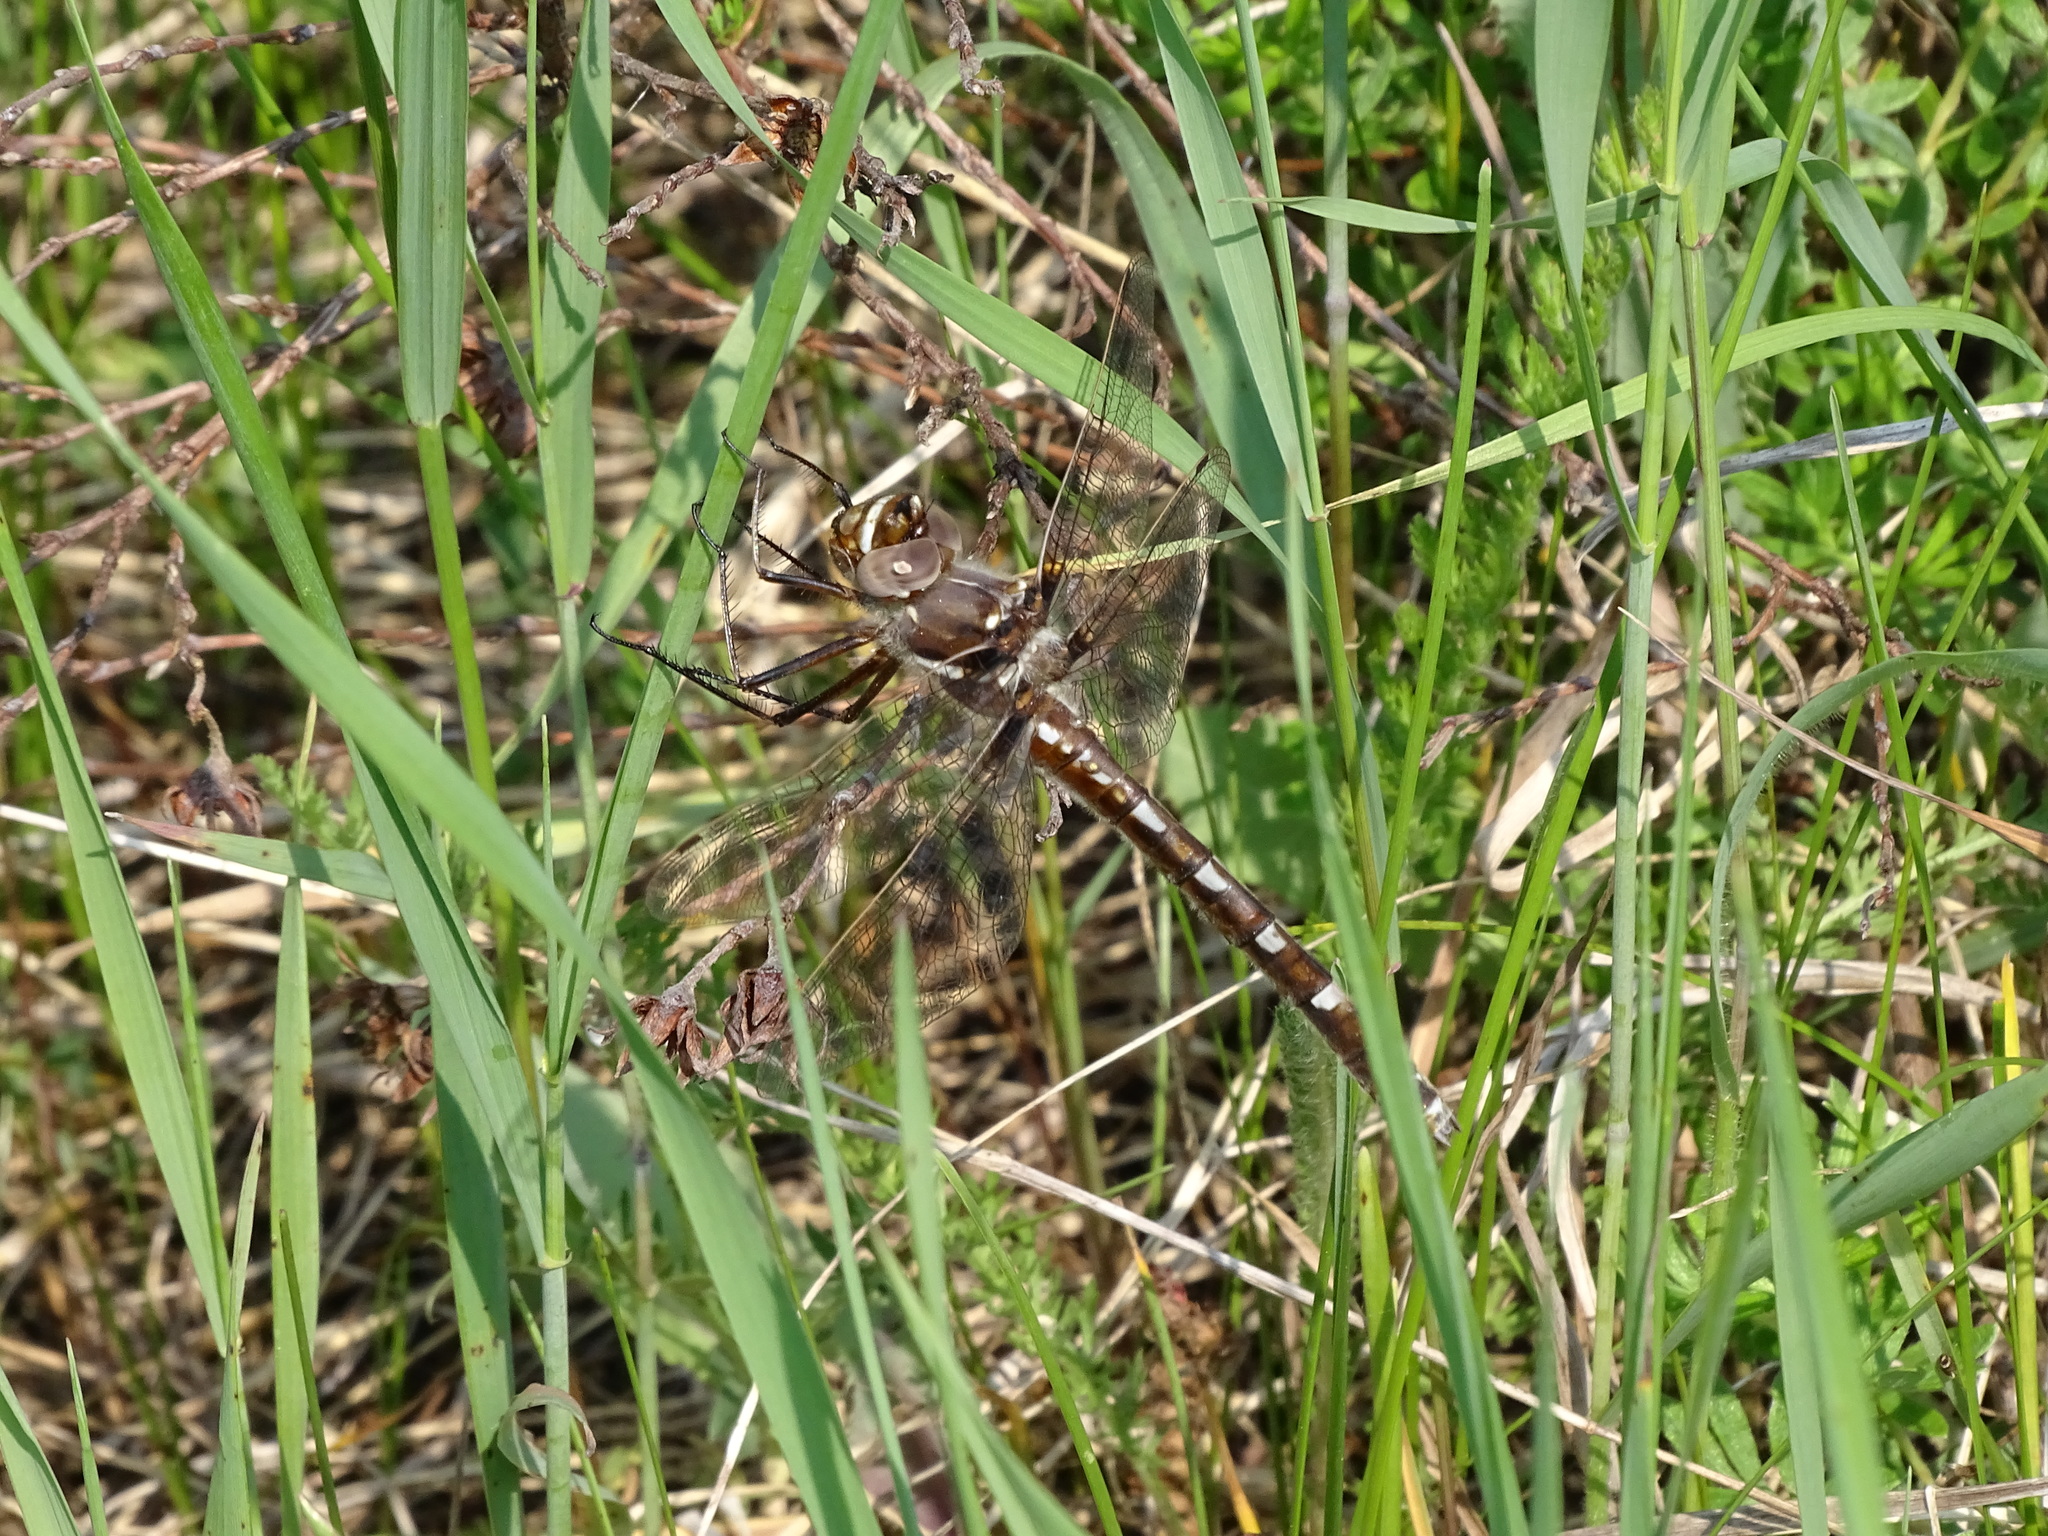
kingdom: Animalia
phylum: Arthropoda
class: Insecta
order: Odonata
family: Macromiidae
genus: Didymops
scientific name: Didymops transversa
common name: Stream cruiser
